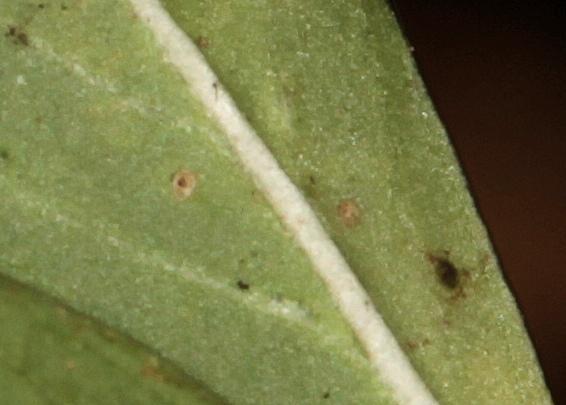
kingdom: Plantae
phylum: Tracheophyta
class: Magnoliopsida
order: Gentianales
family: Rubiaceae
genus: Pavetta
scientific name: Pavetta catophylla
